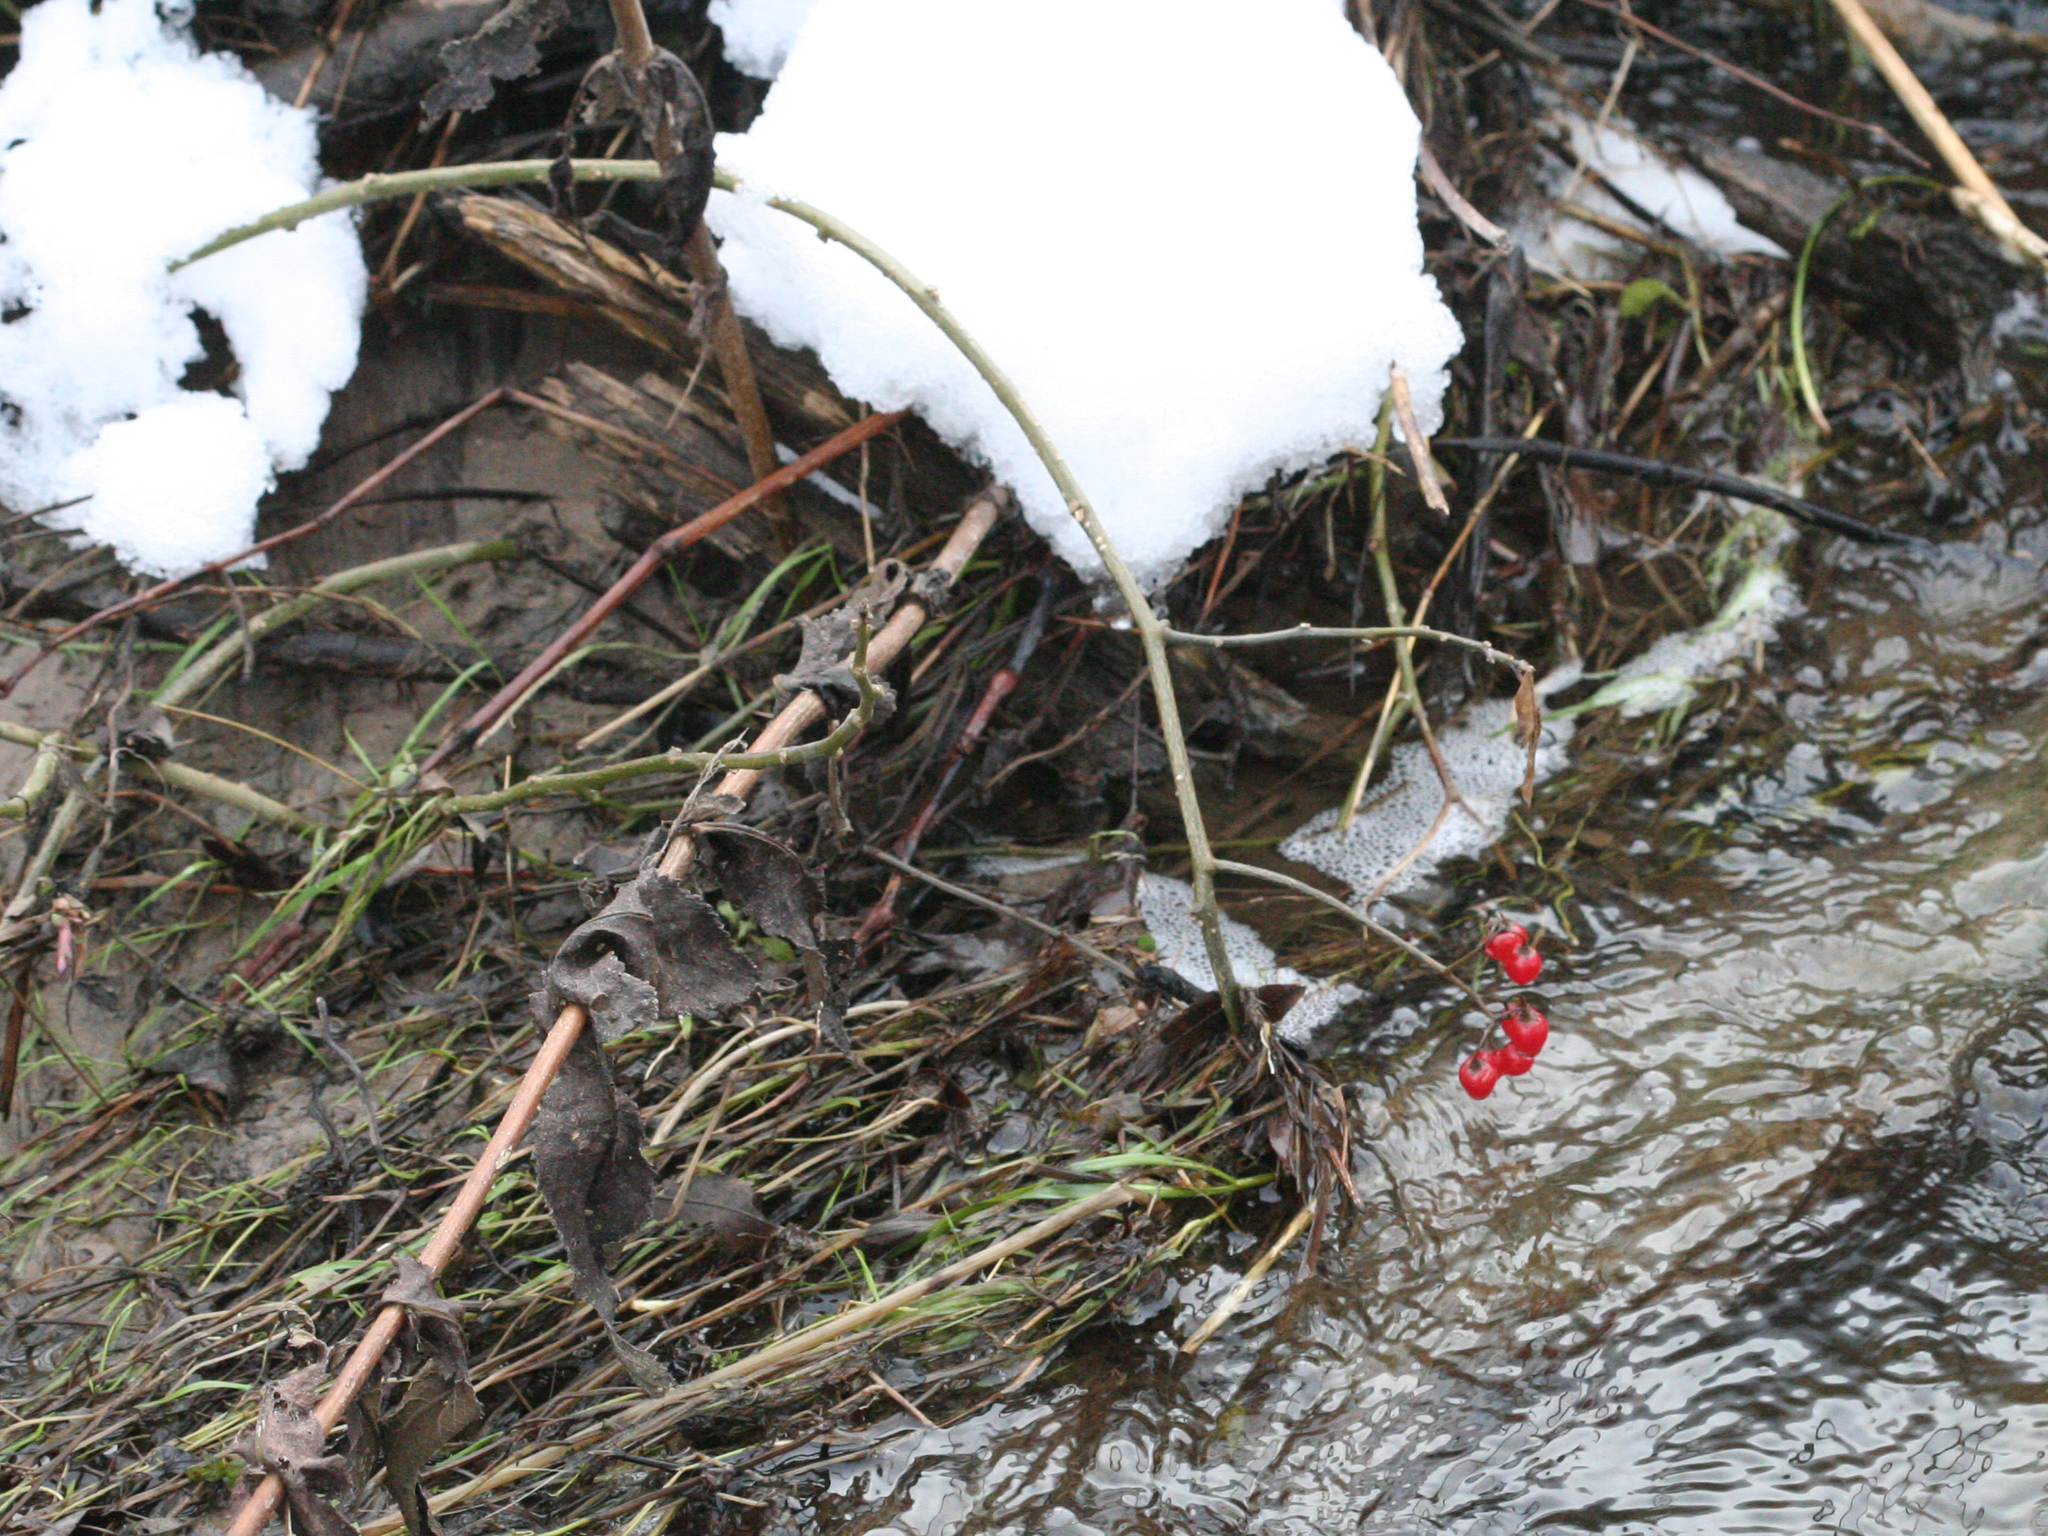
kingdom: Plantae
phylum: Tracheophyta
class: Magnoliopsida
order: Solanales
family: Solanaceae
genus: Solanum
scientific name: Solanum dulcamara
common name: Climbing nightshade
